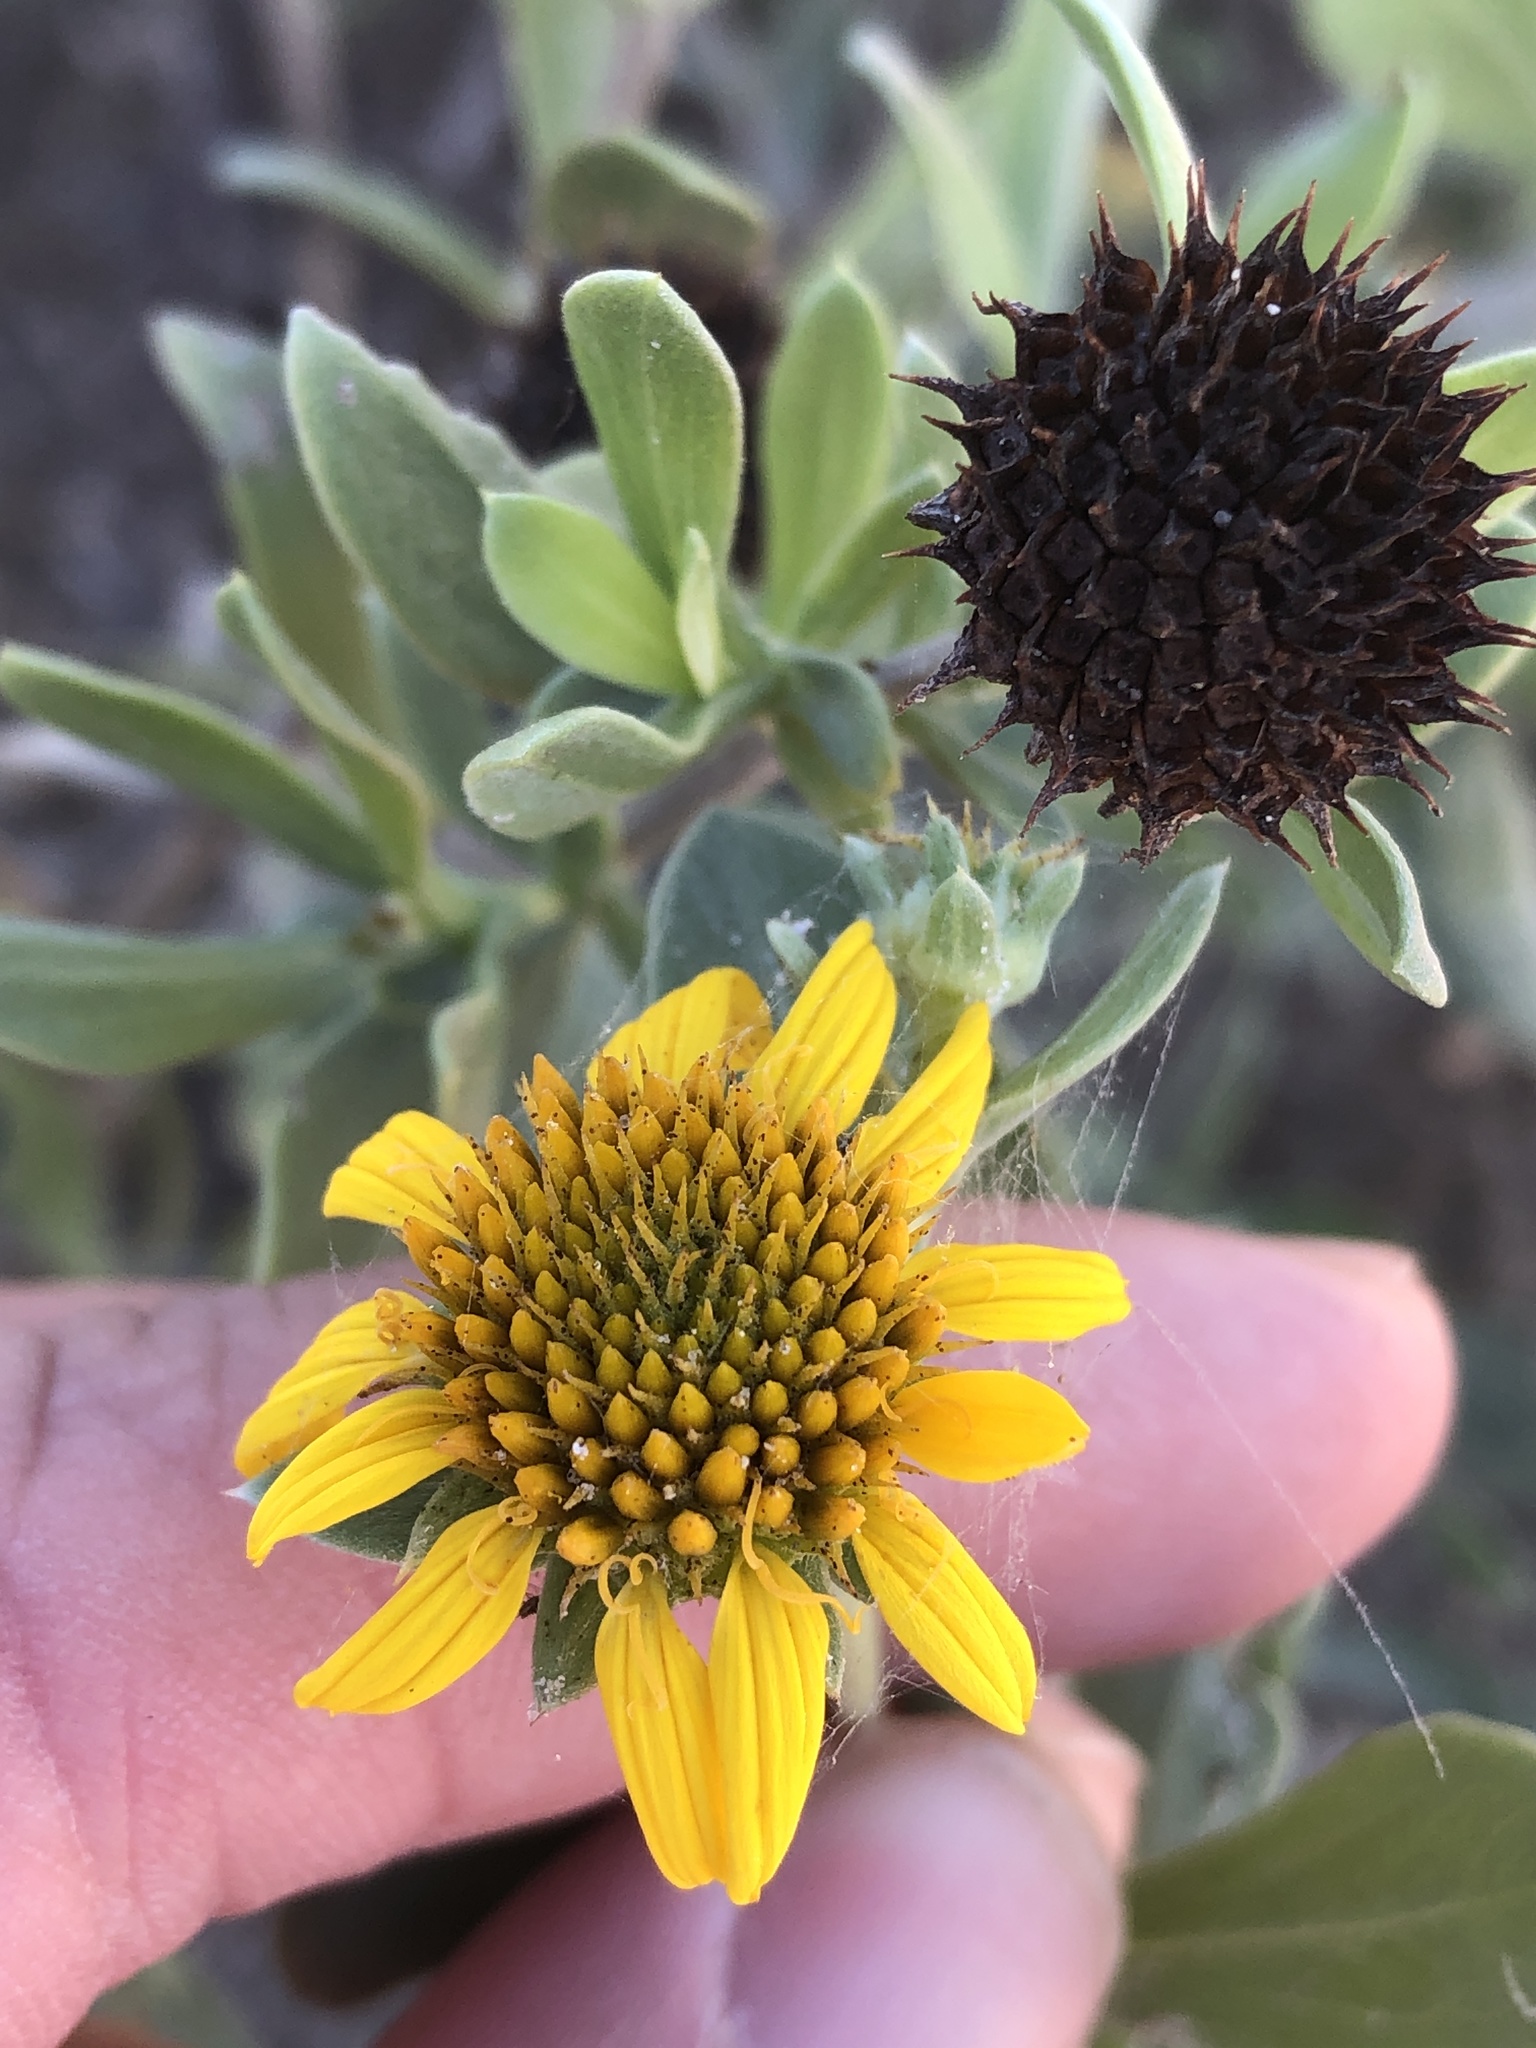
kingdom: Plantae
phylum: Tracheophyta
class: Magnoliopsida
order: Asterales
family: Asteraceae
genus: Borrichia
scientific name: Borrichia frutescens
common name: Sea oxeye
